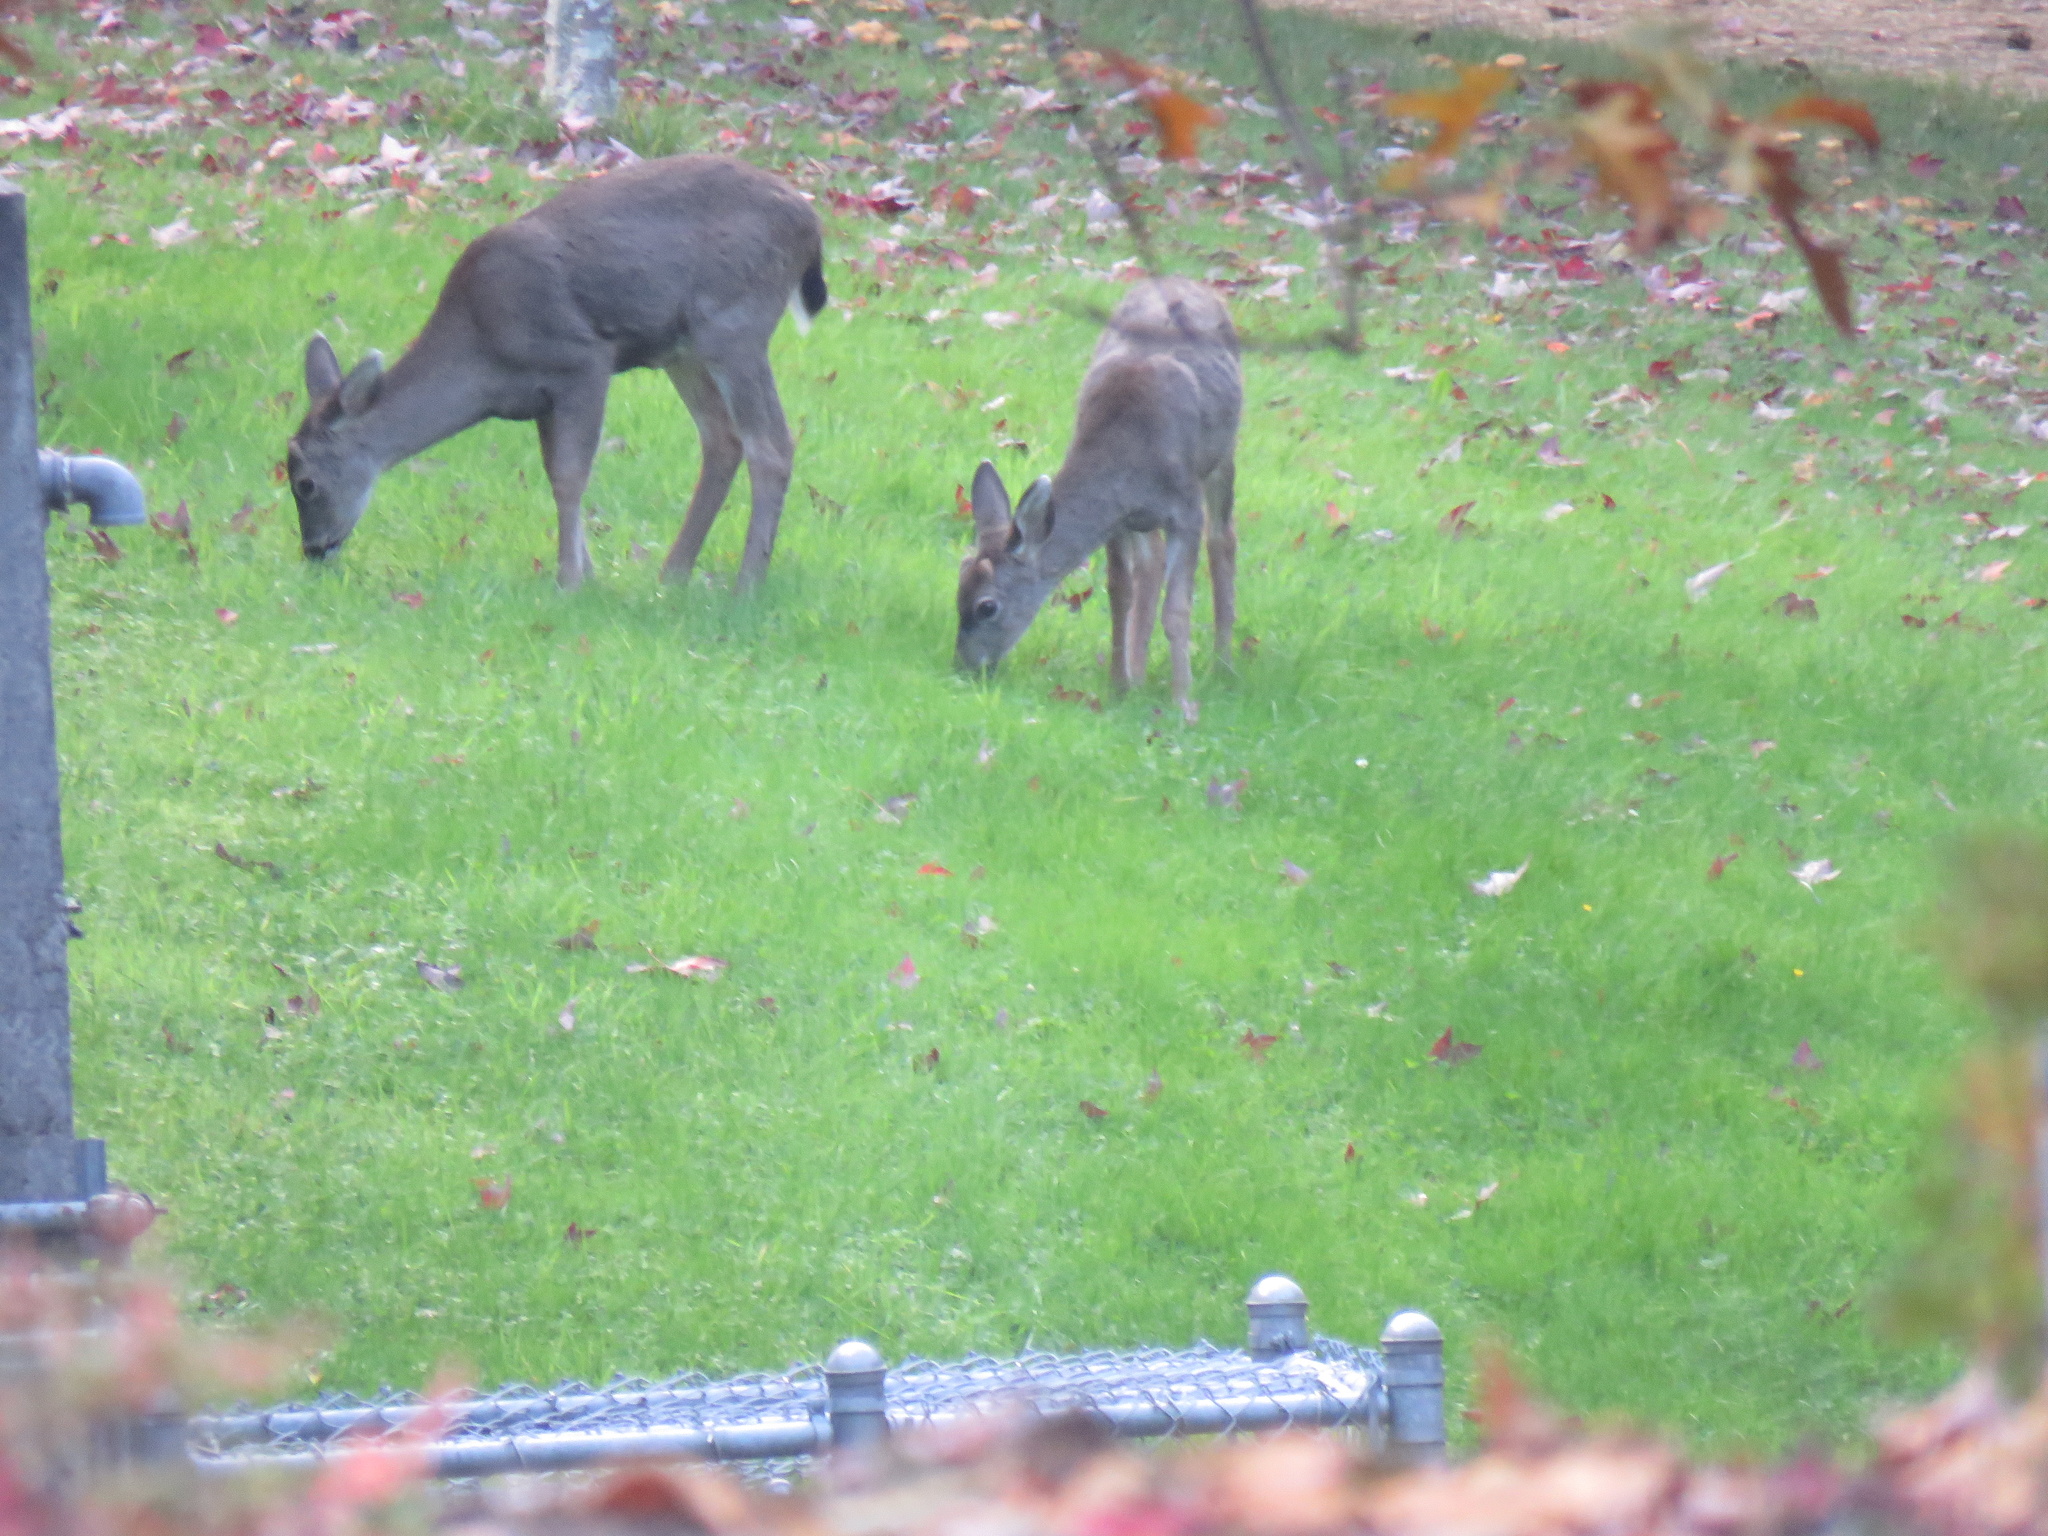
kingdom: Animalia
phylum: Chordata
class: Mammalia
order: Artiodactyla
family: Cervidae
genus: Odocoileus
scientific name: Odocoileus hemionus
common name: Mule deer
